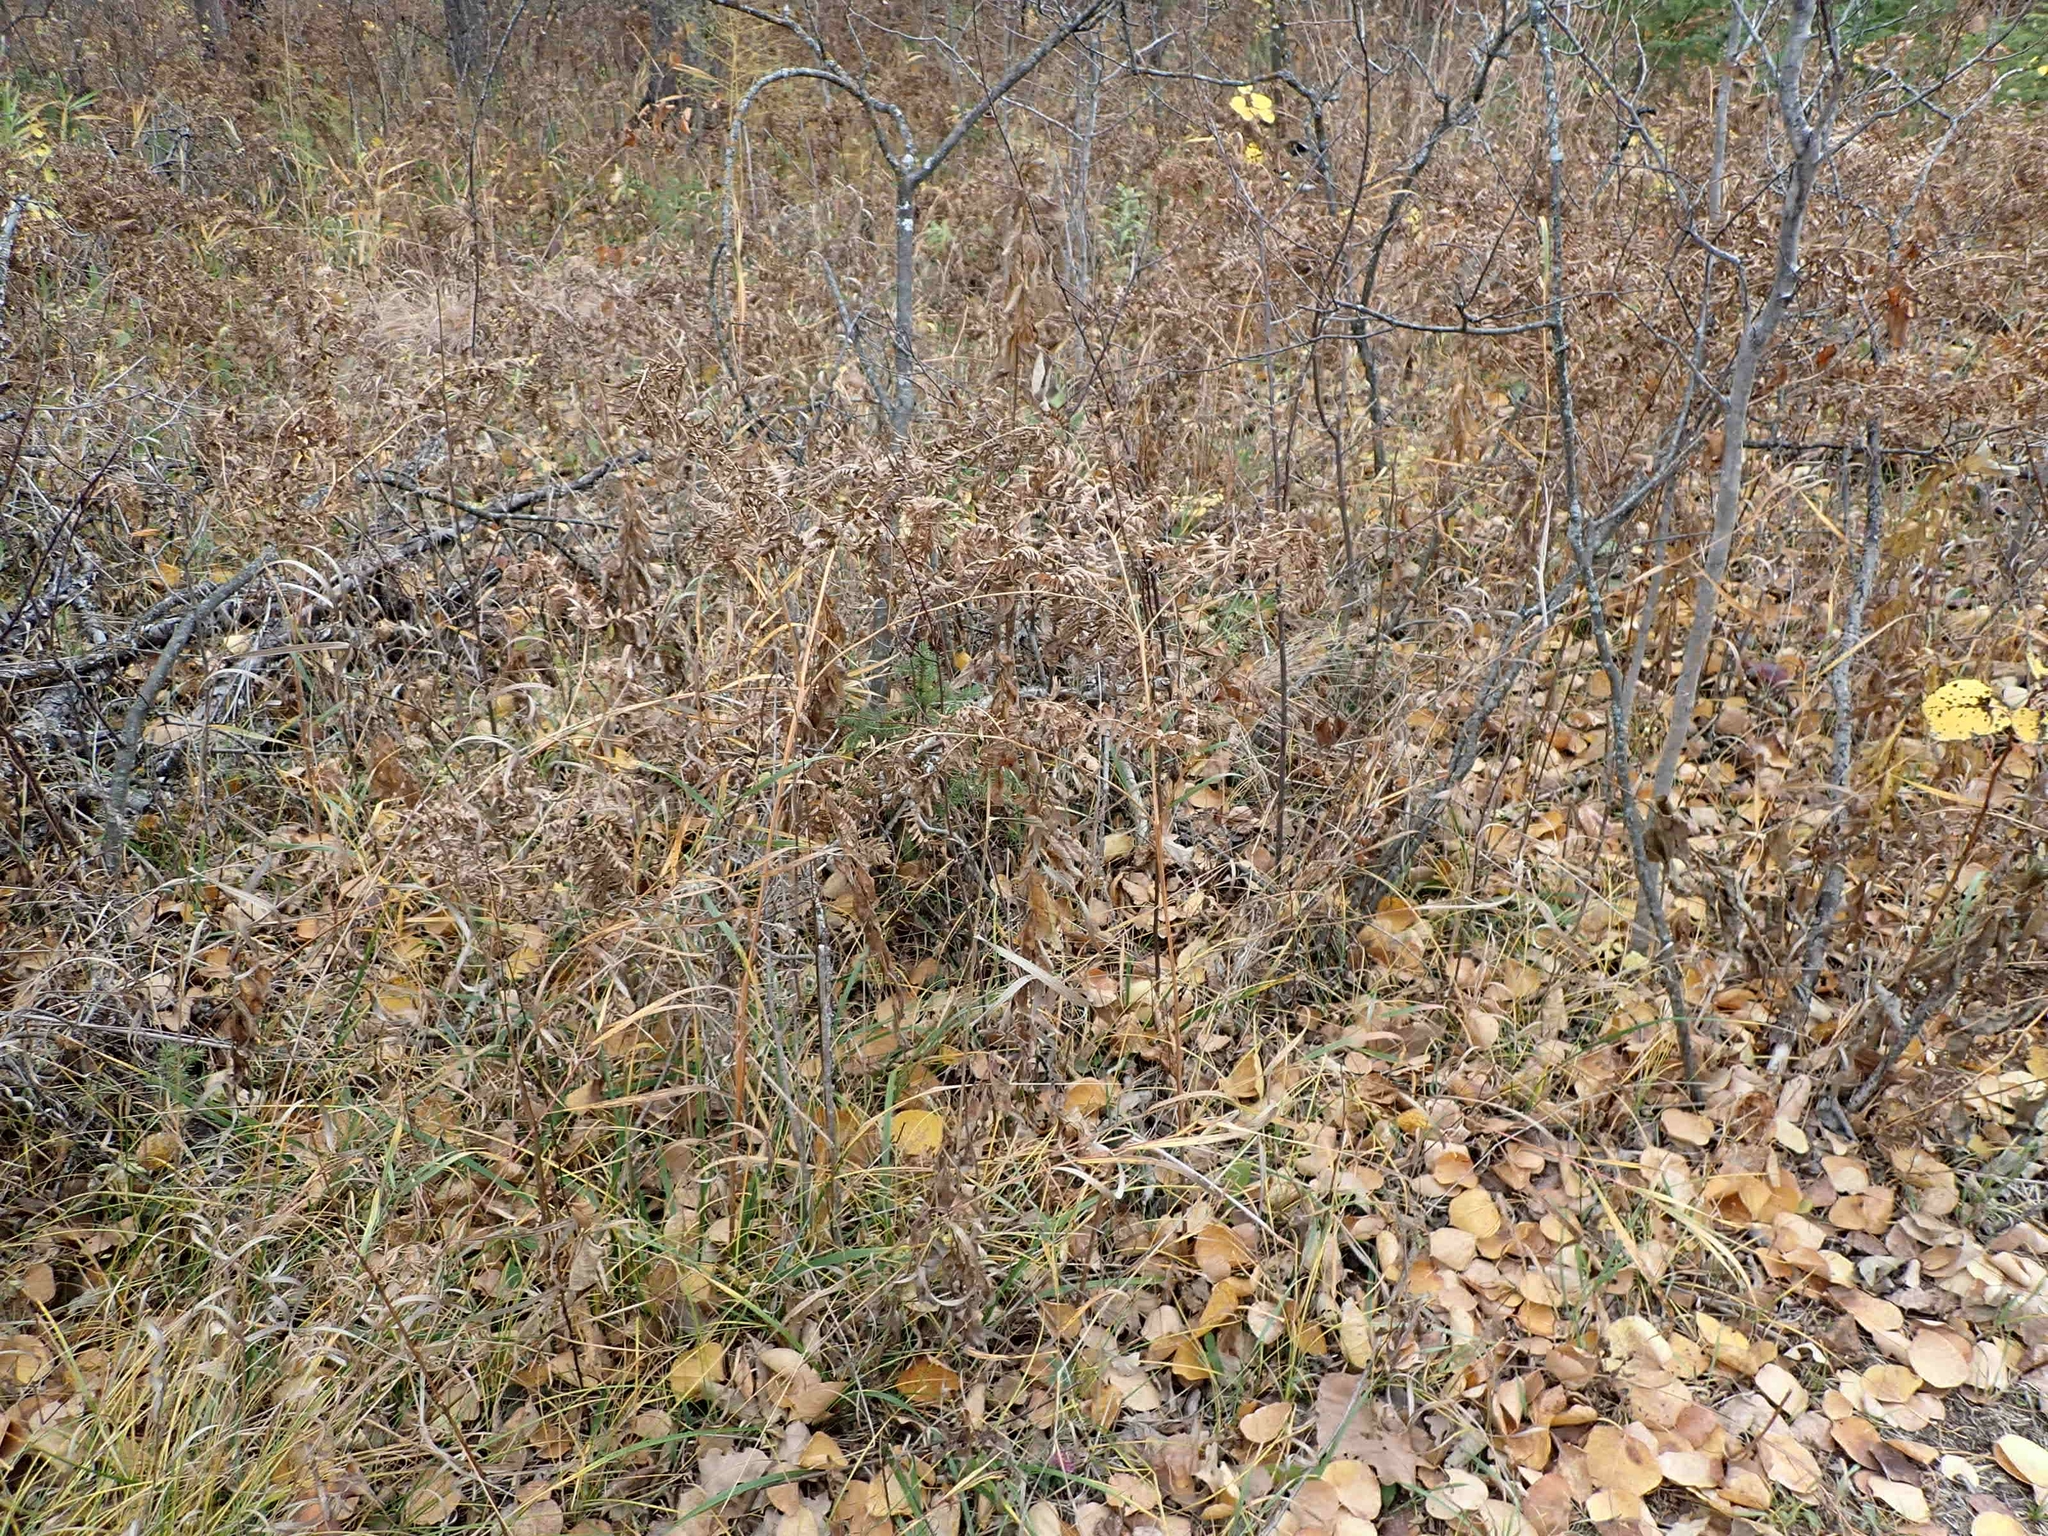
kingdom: Plantae
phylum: Tracheophyta
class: Polypodiopsida
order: Polypodiales
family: Dennstaedtiaceae
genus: Pteridium
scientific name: Pteridium aquilinum
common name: Bracken
